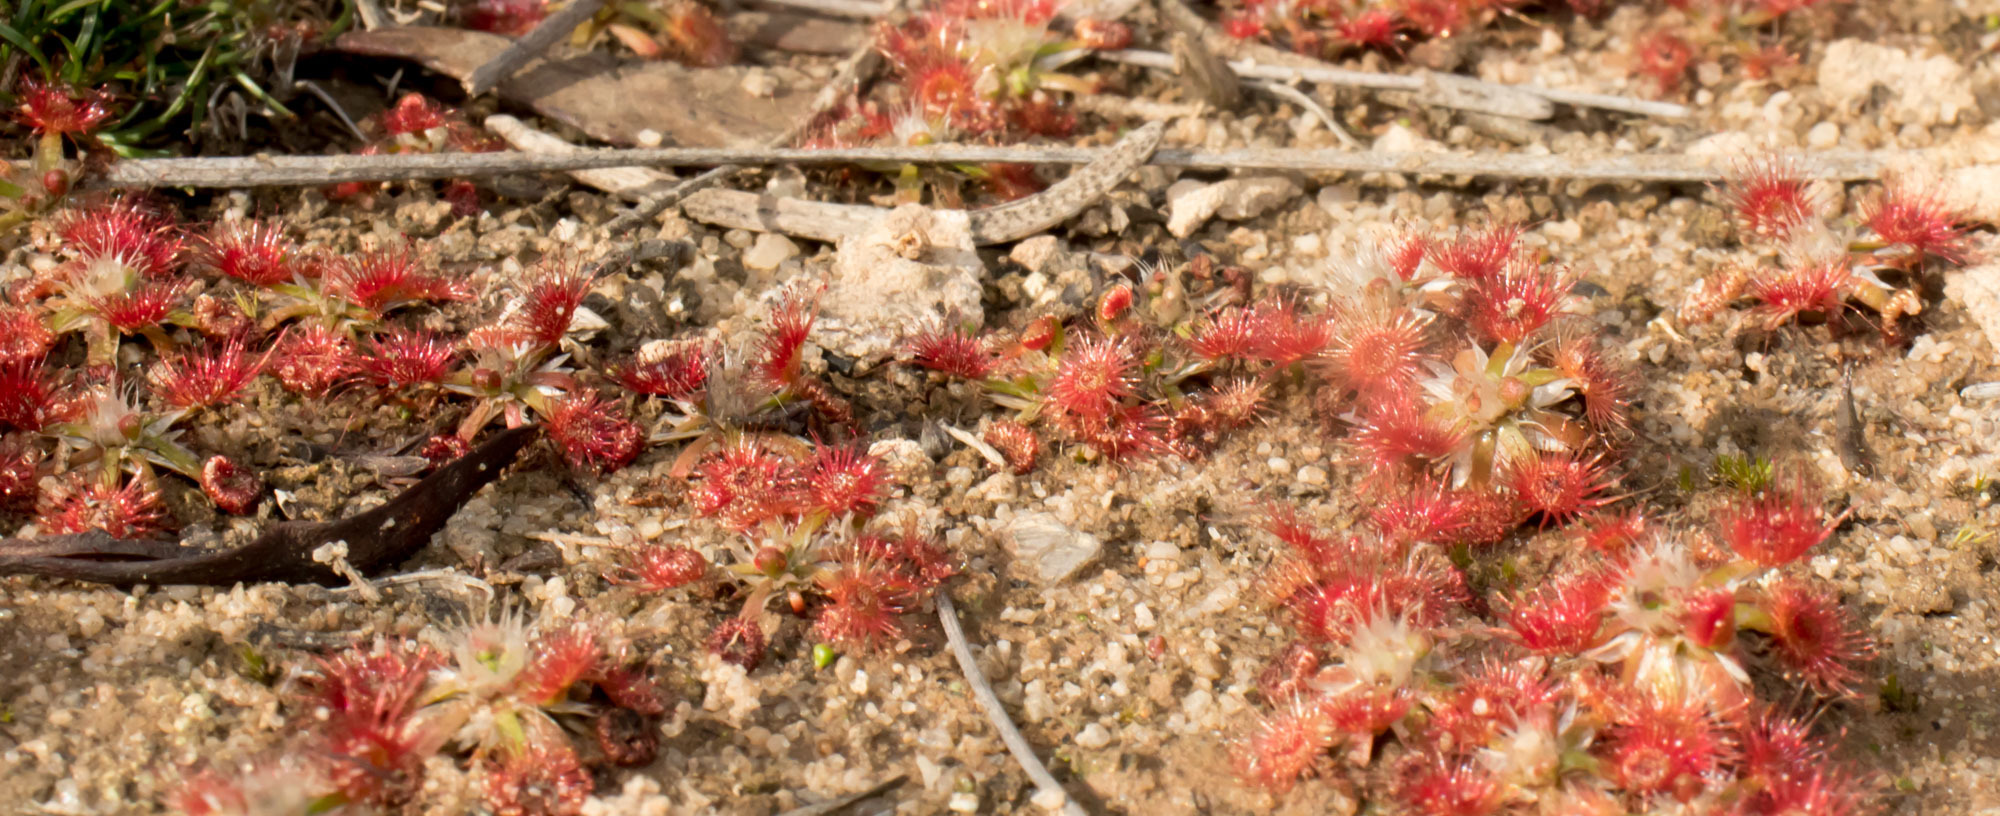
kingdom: Plantae
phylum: Tracheophyta
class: Magnoliopsida
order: Caryophyllales
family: Droseraceae
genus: Drosera
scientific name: Drosera androsacea
